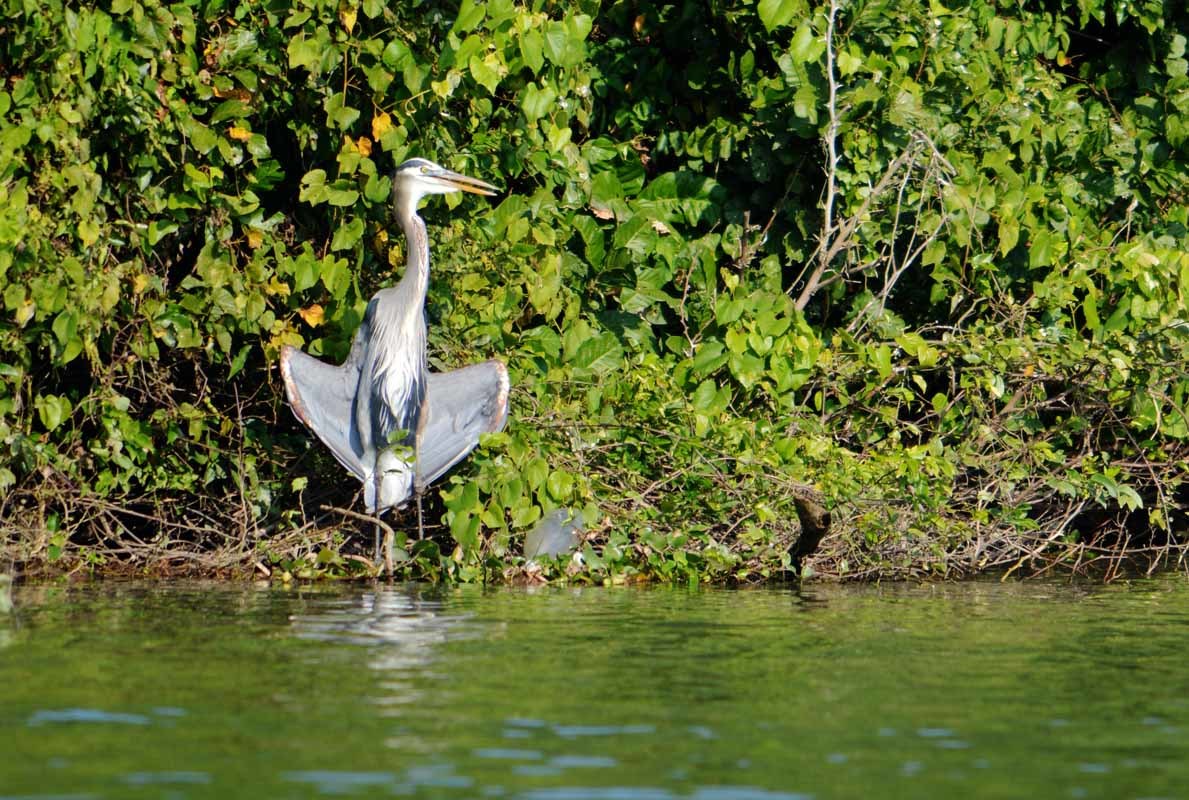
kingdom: Animalia
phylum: Chordata
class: Aves
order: Pelecaniformes
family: Ardeidae
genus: Ardea
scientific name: Ardea herodias
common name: Great blue heron
